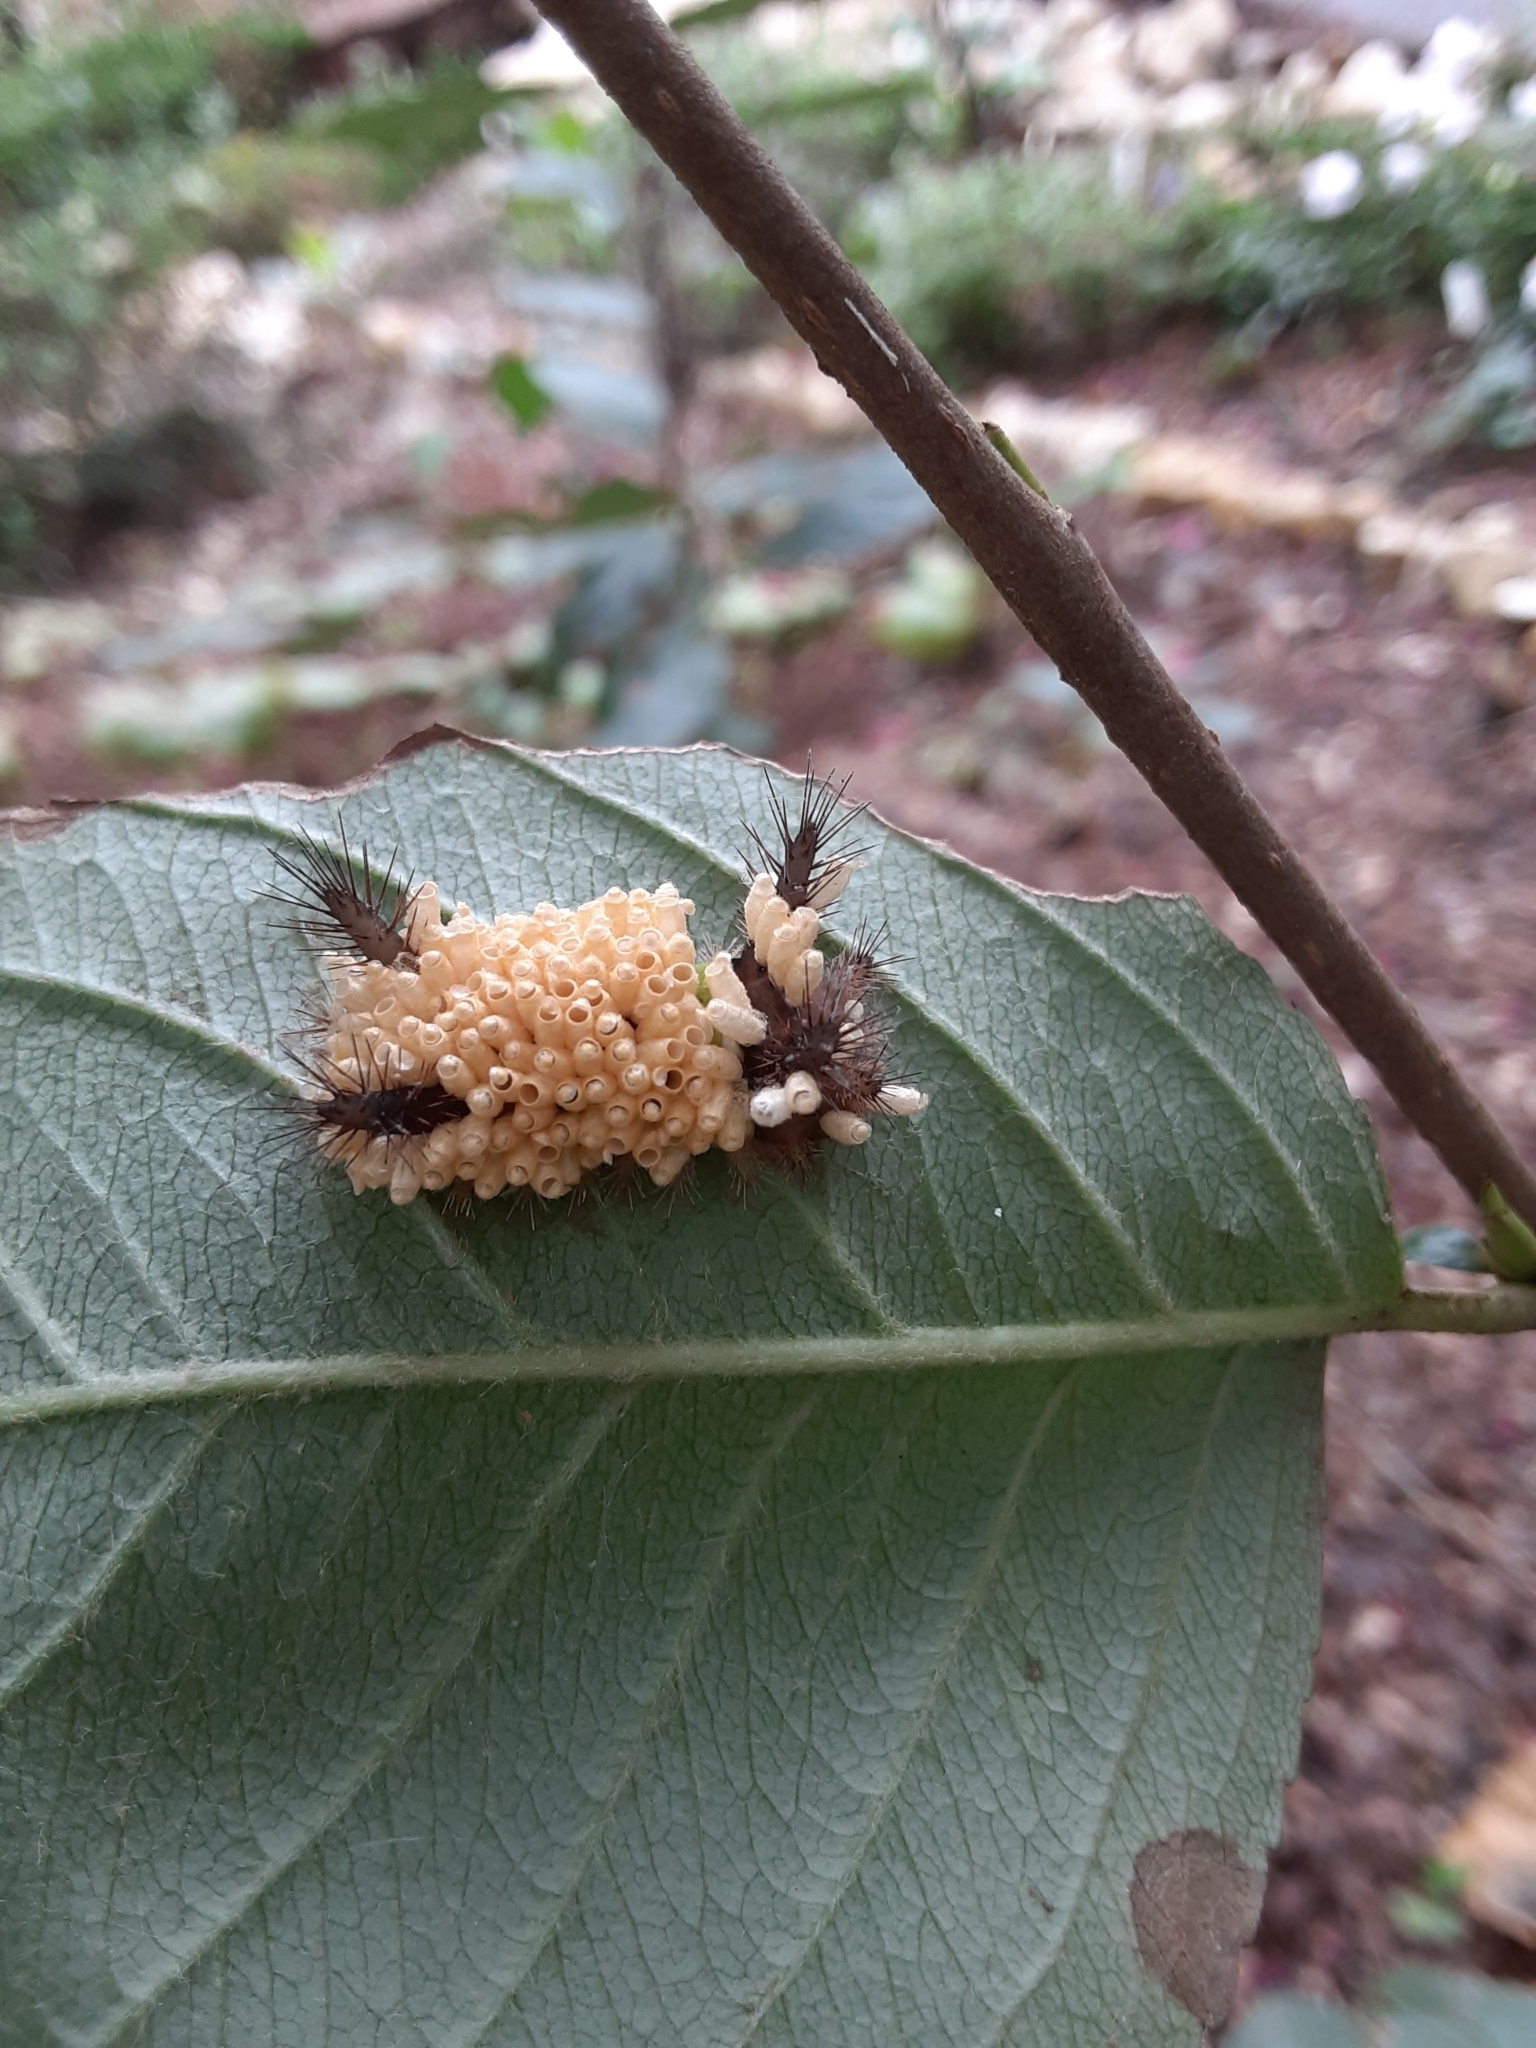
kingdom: Animalia
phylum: Arthropoda
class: Insecta
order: Lepidoptera
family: Limacodidae
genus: Acharia
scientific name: Acharia stimulea
